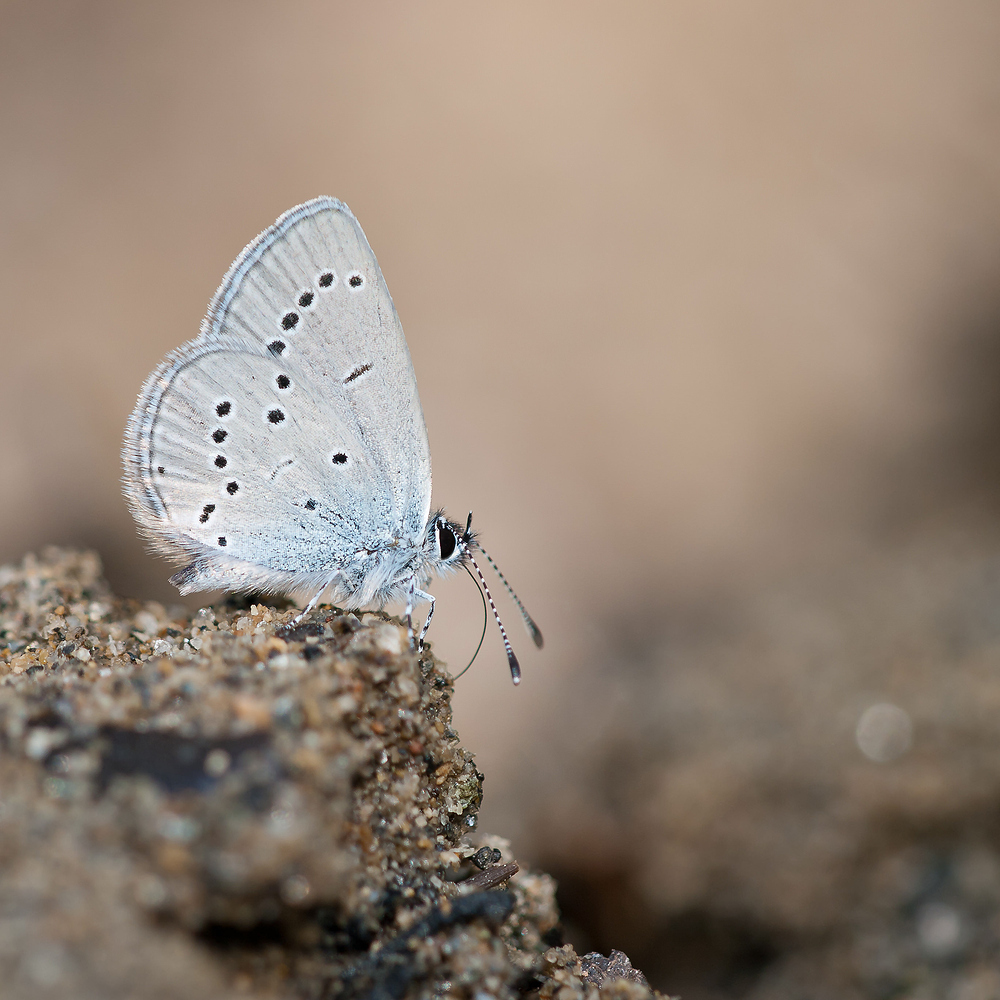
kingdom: Animalia
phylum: Arthropoda
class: Insecta
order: Lepidoptera
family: Lycaenidae
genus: Cupido
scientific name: Cupido minimus
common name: Small blue
